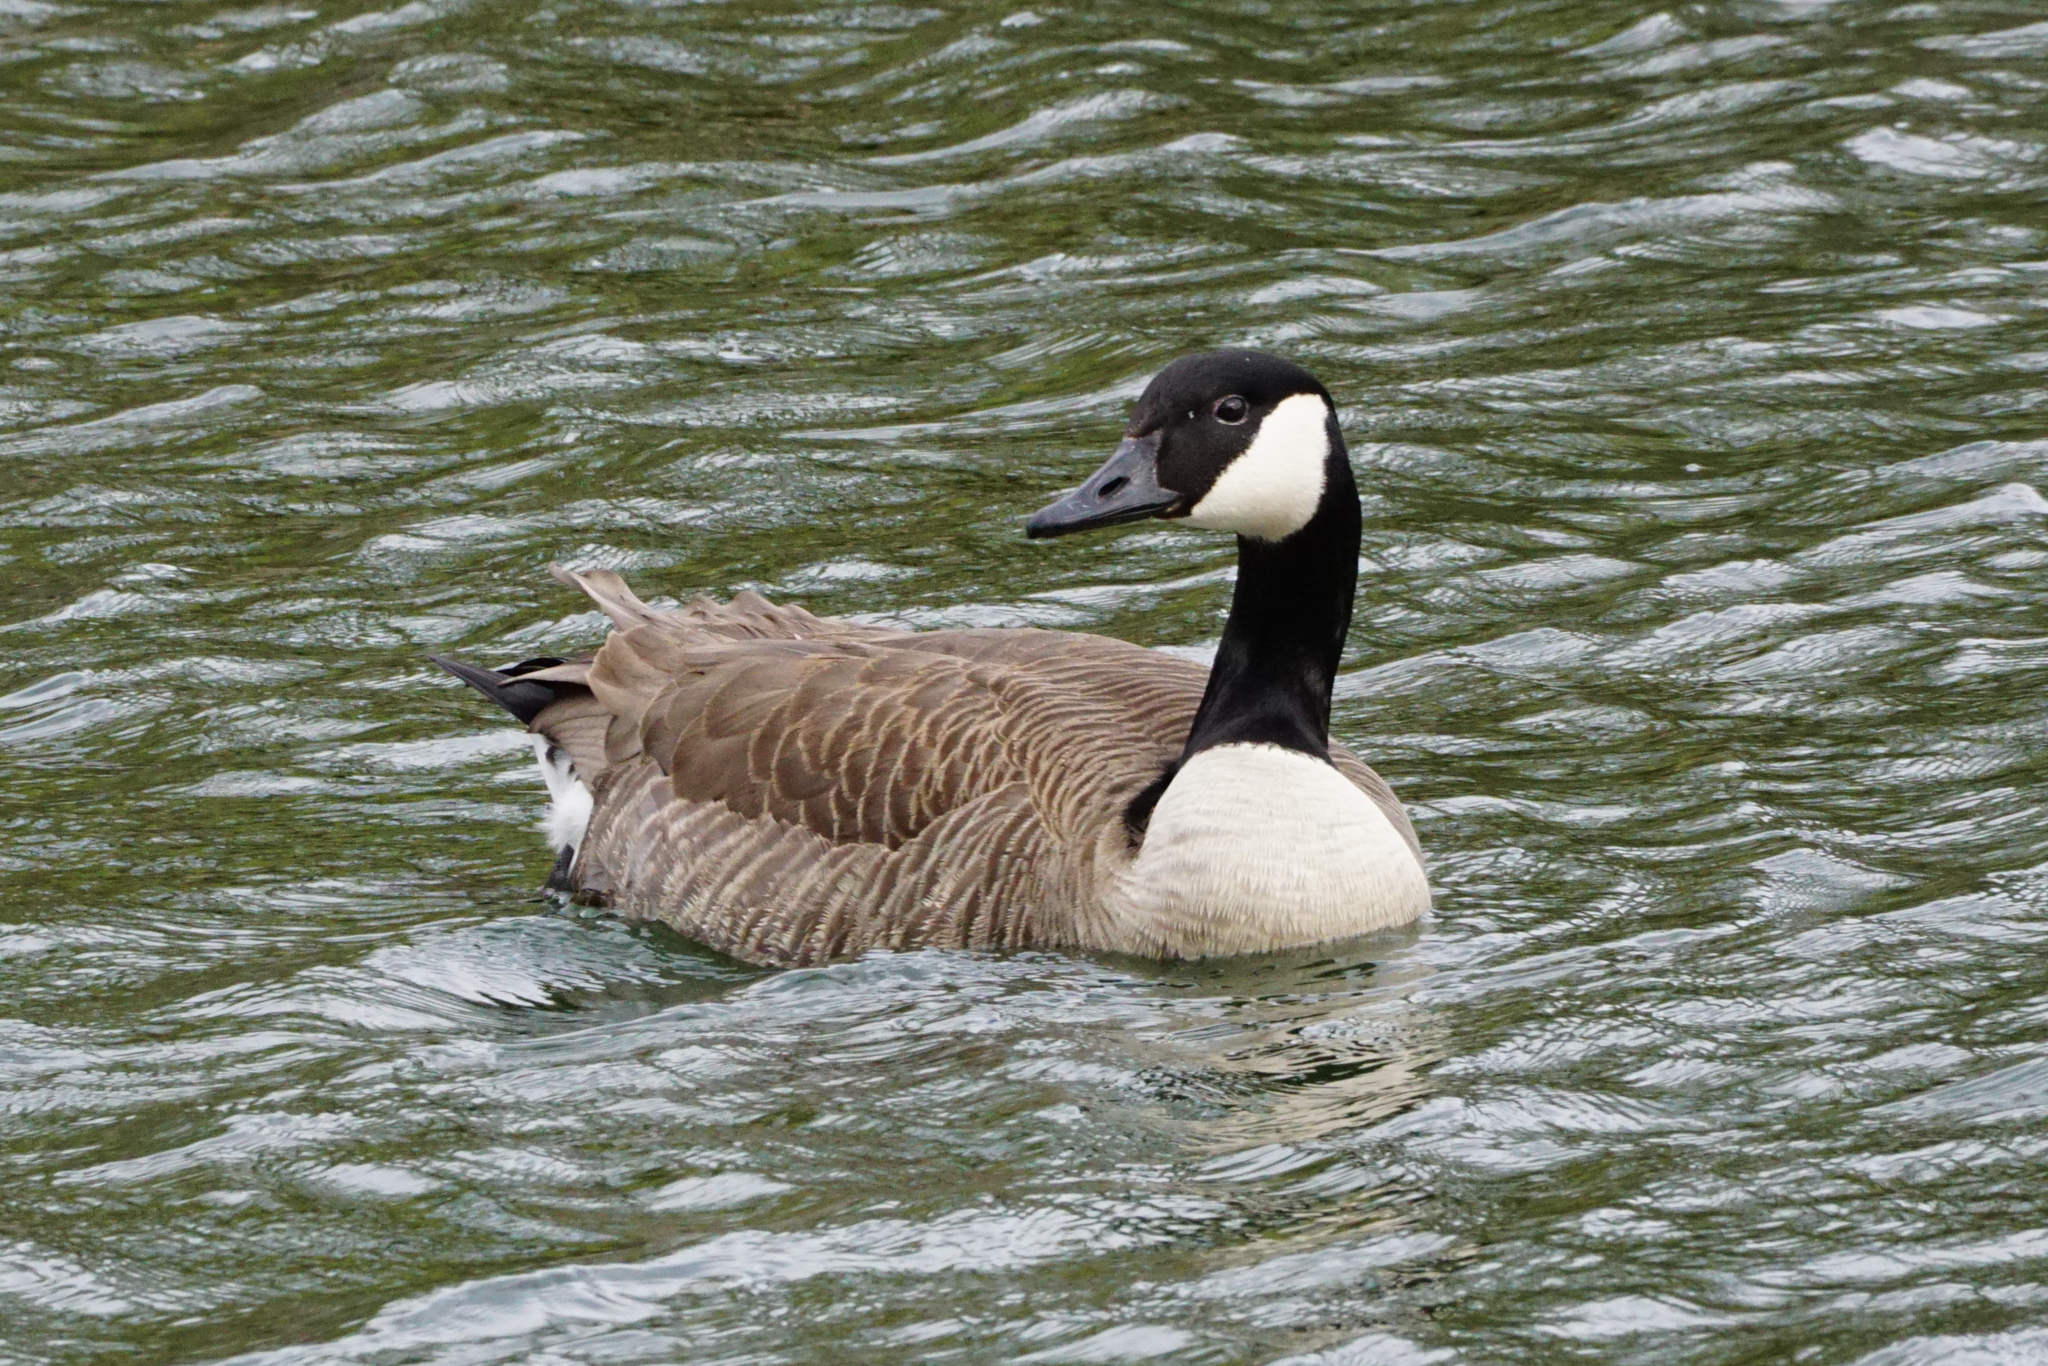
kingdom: Animalia
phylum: Chordata
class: Aves
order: Anseriformes
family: Anatidae
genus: Branta
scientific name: Branta canadensis
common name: Canada goose
